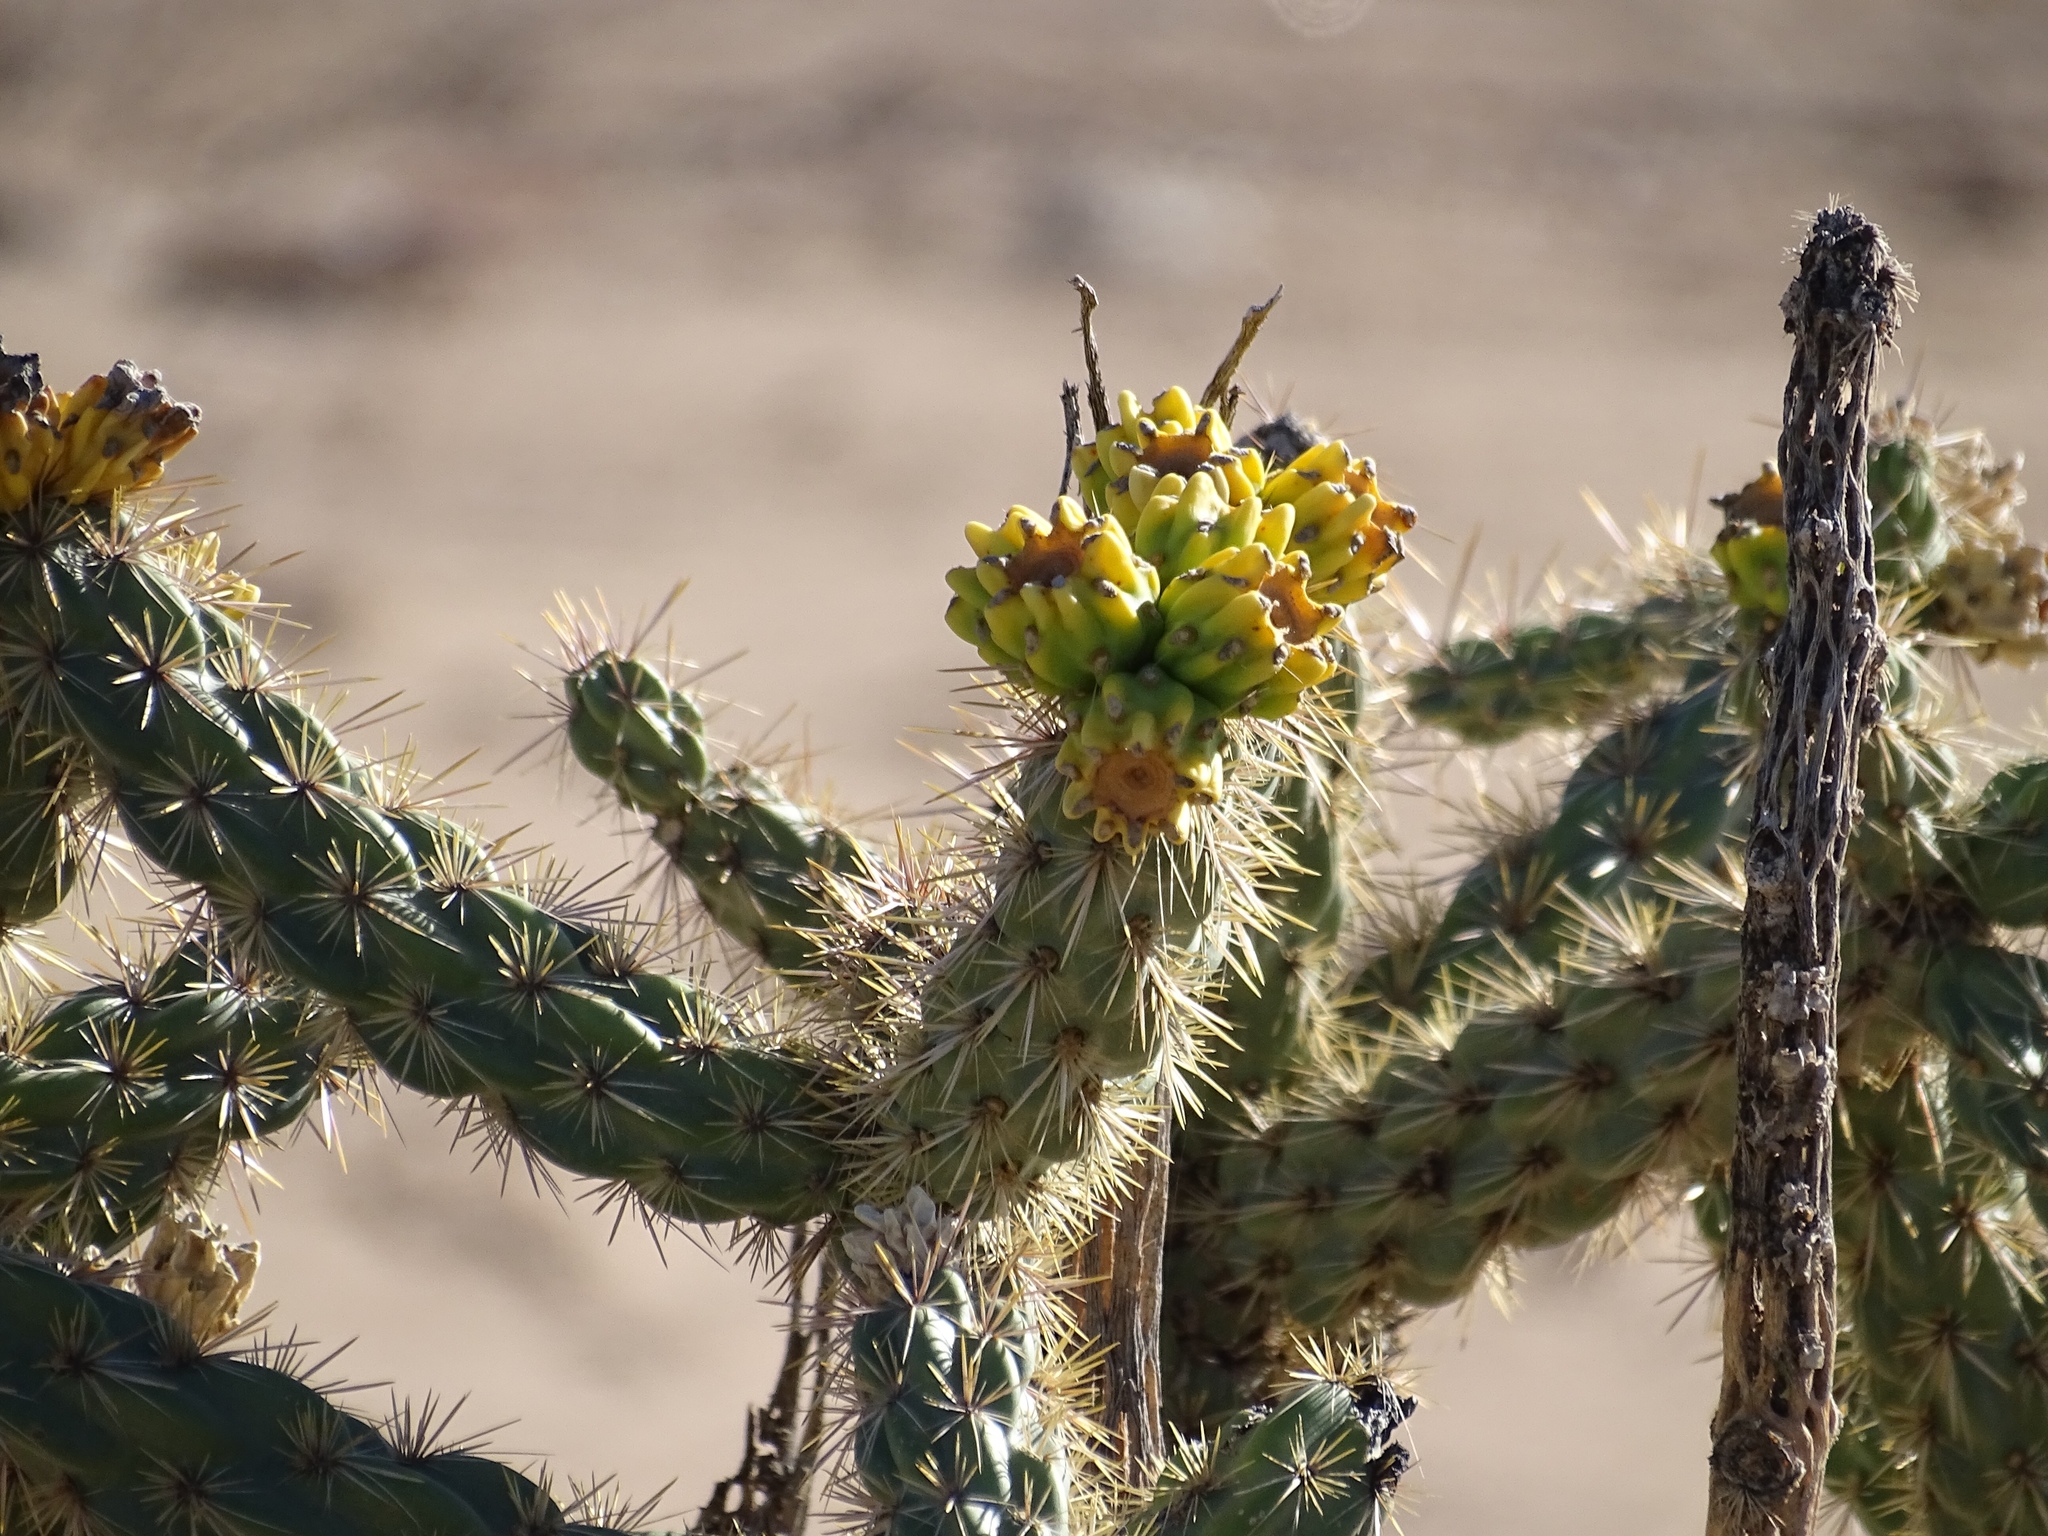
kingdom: Plantae
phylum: Tracheophyta
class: Magnoliopsida
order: Caryophyllales
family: Cactaceae
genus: Cylindropuntia
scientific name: Cylindropuntia imbricata
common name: Candelabrum cactus
